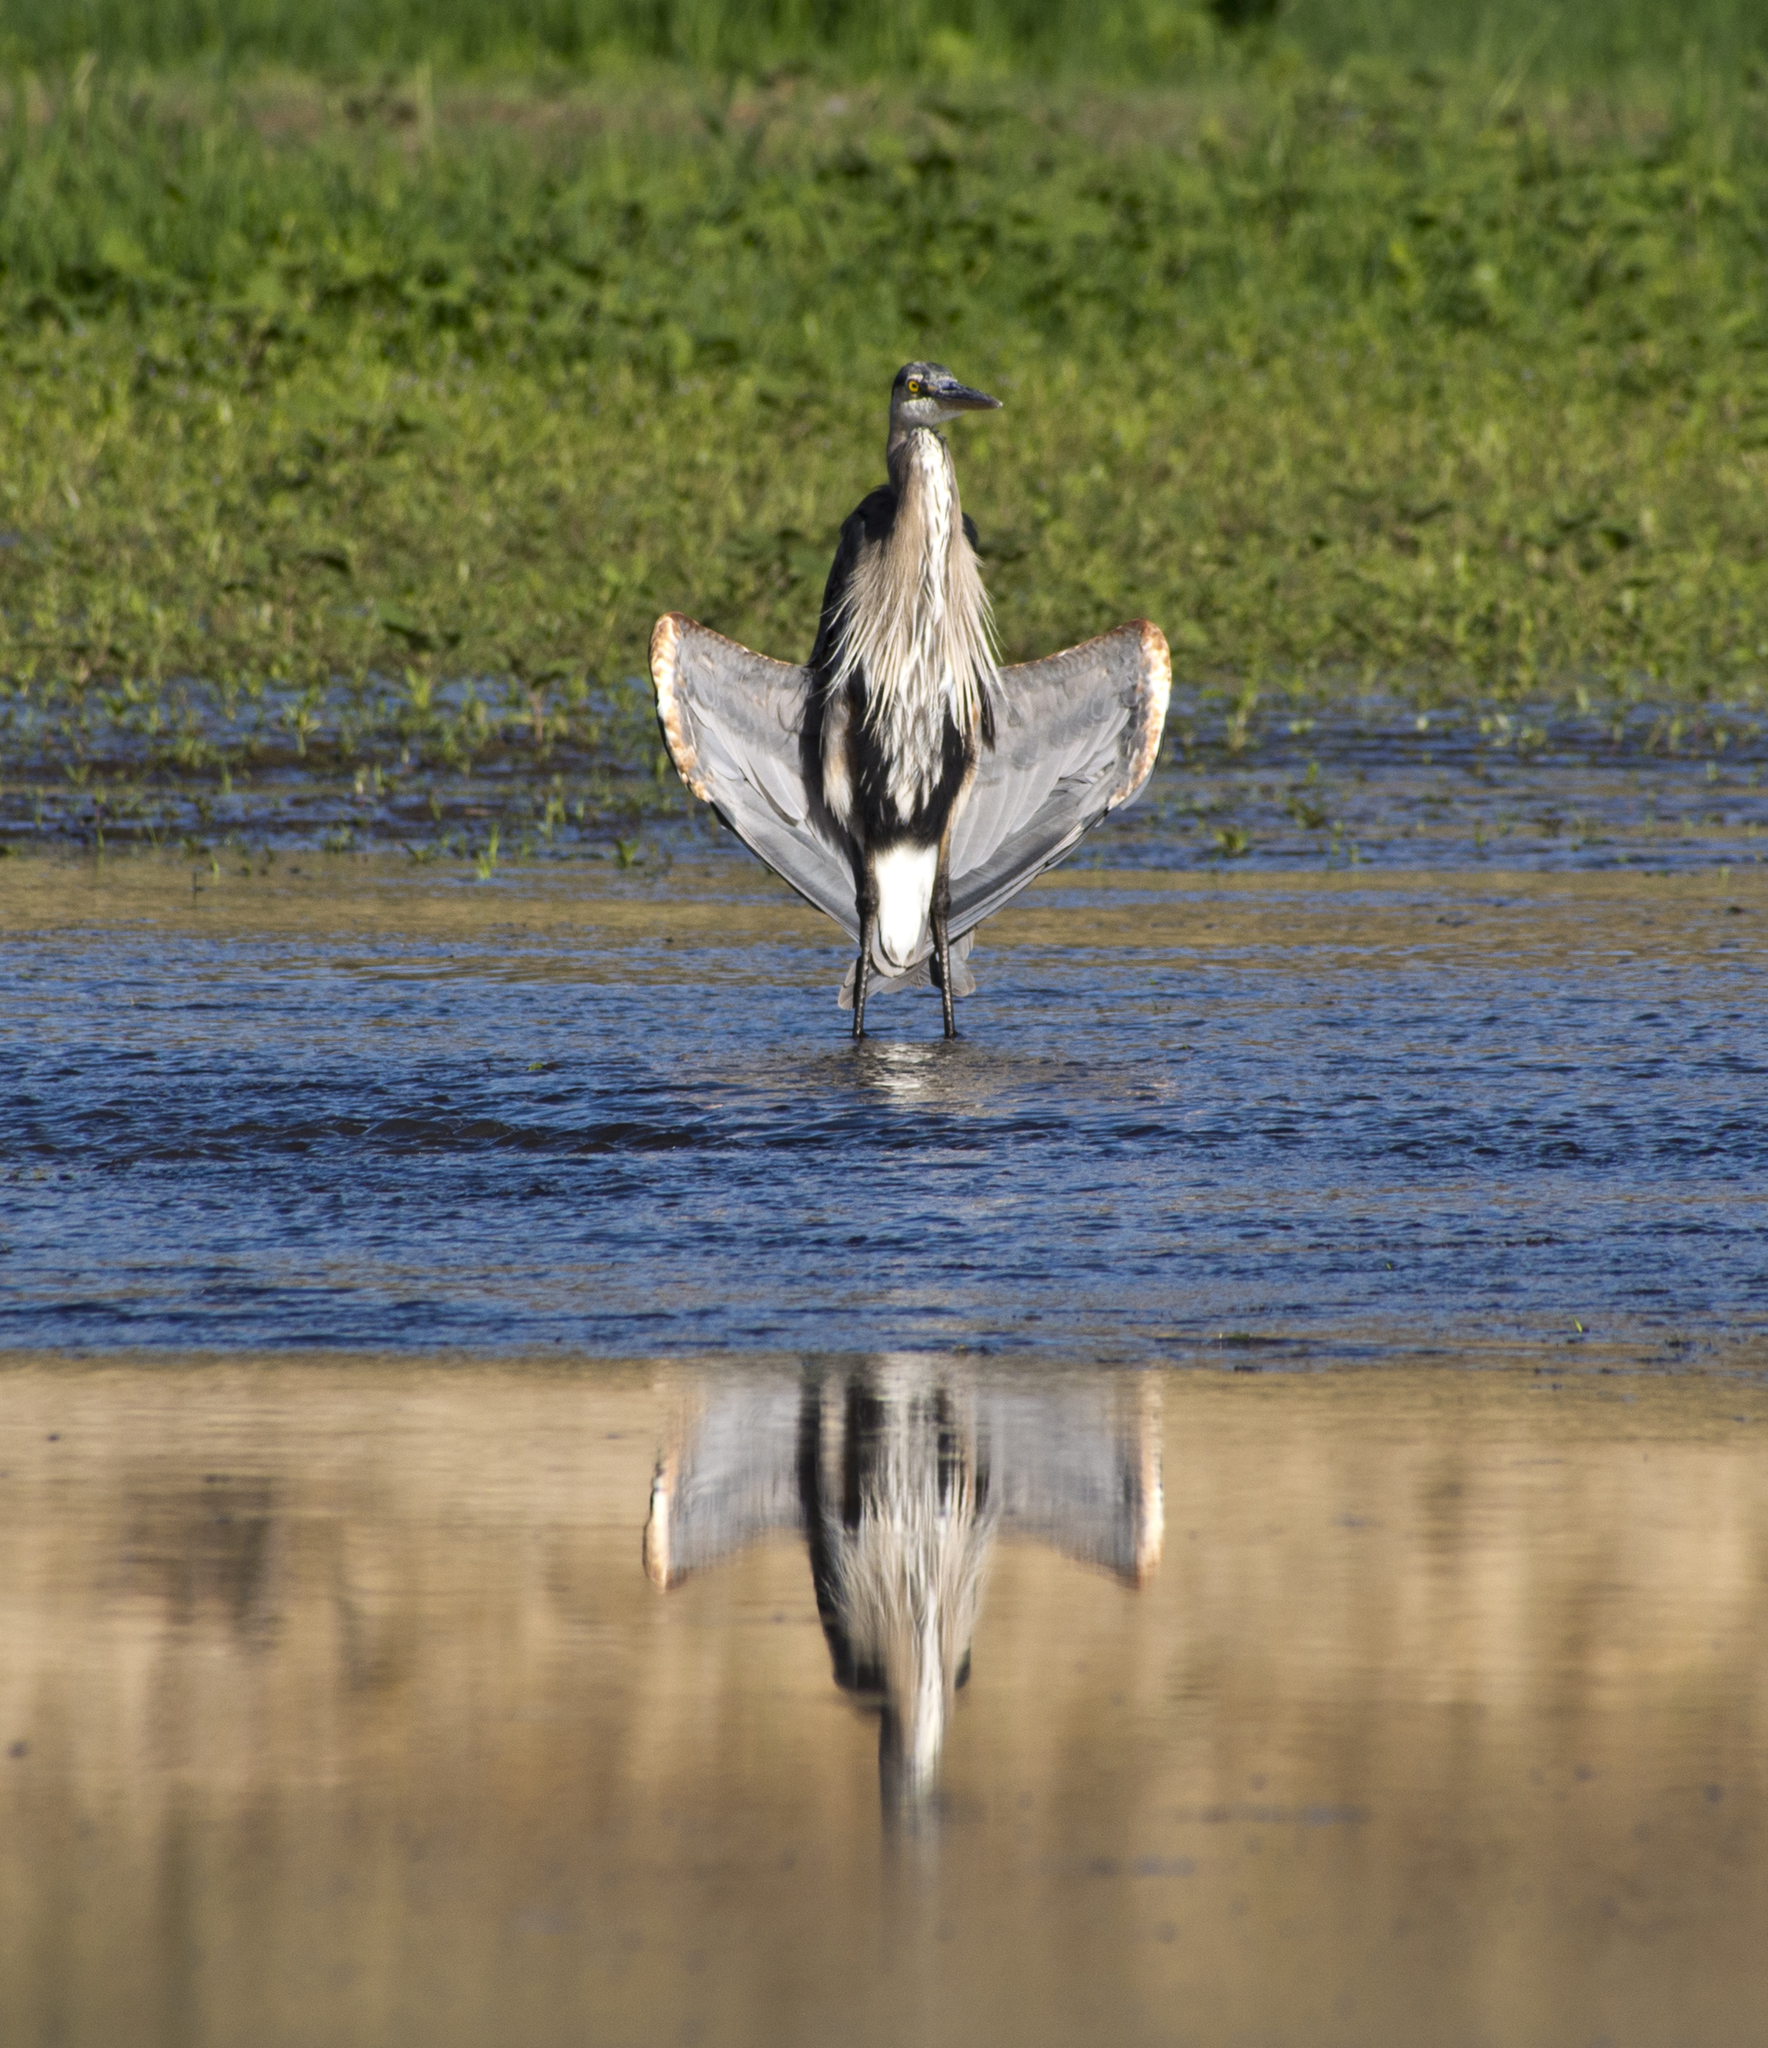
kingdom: Animalia
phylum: Chordata
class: Aves
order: Pelecaniformes
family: Ardeidae
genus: Ardea
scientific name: Ardea herodias
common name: Great blue heron
